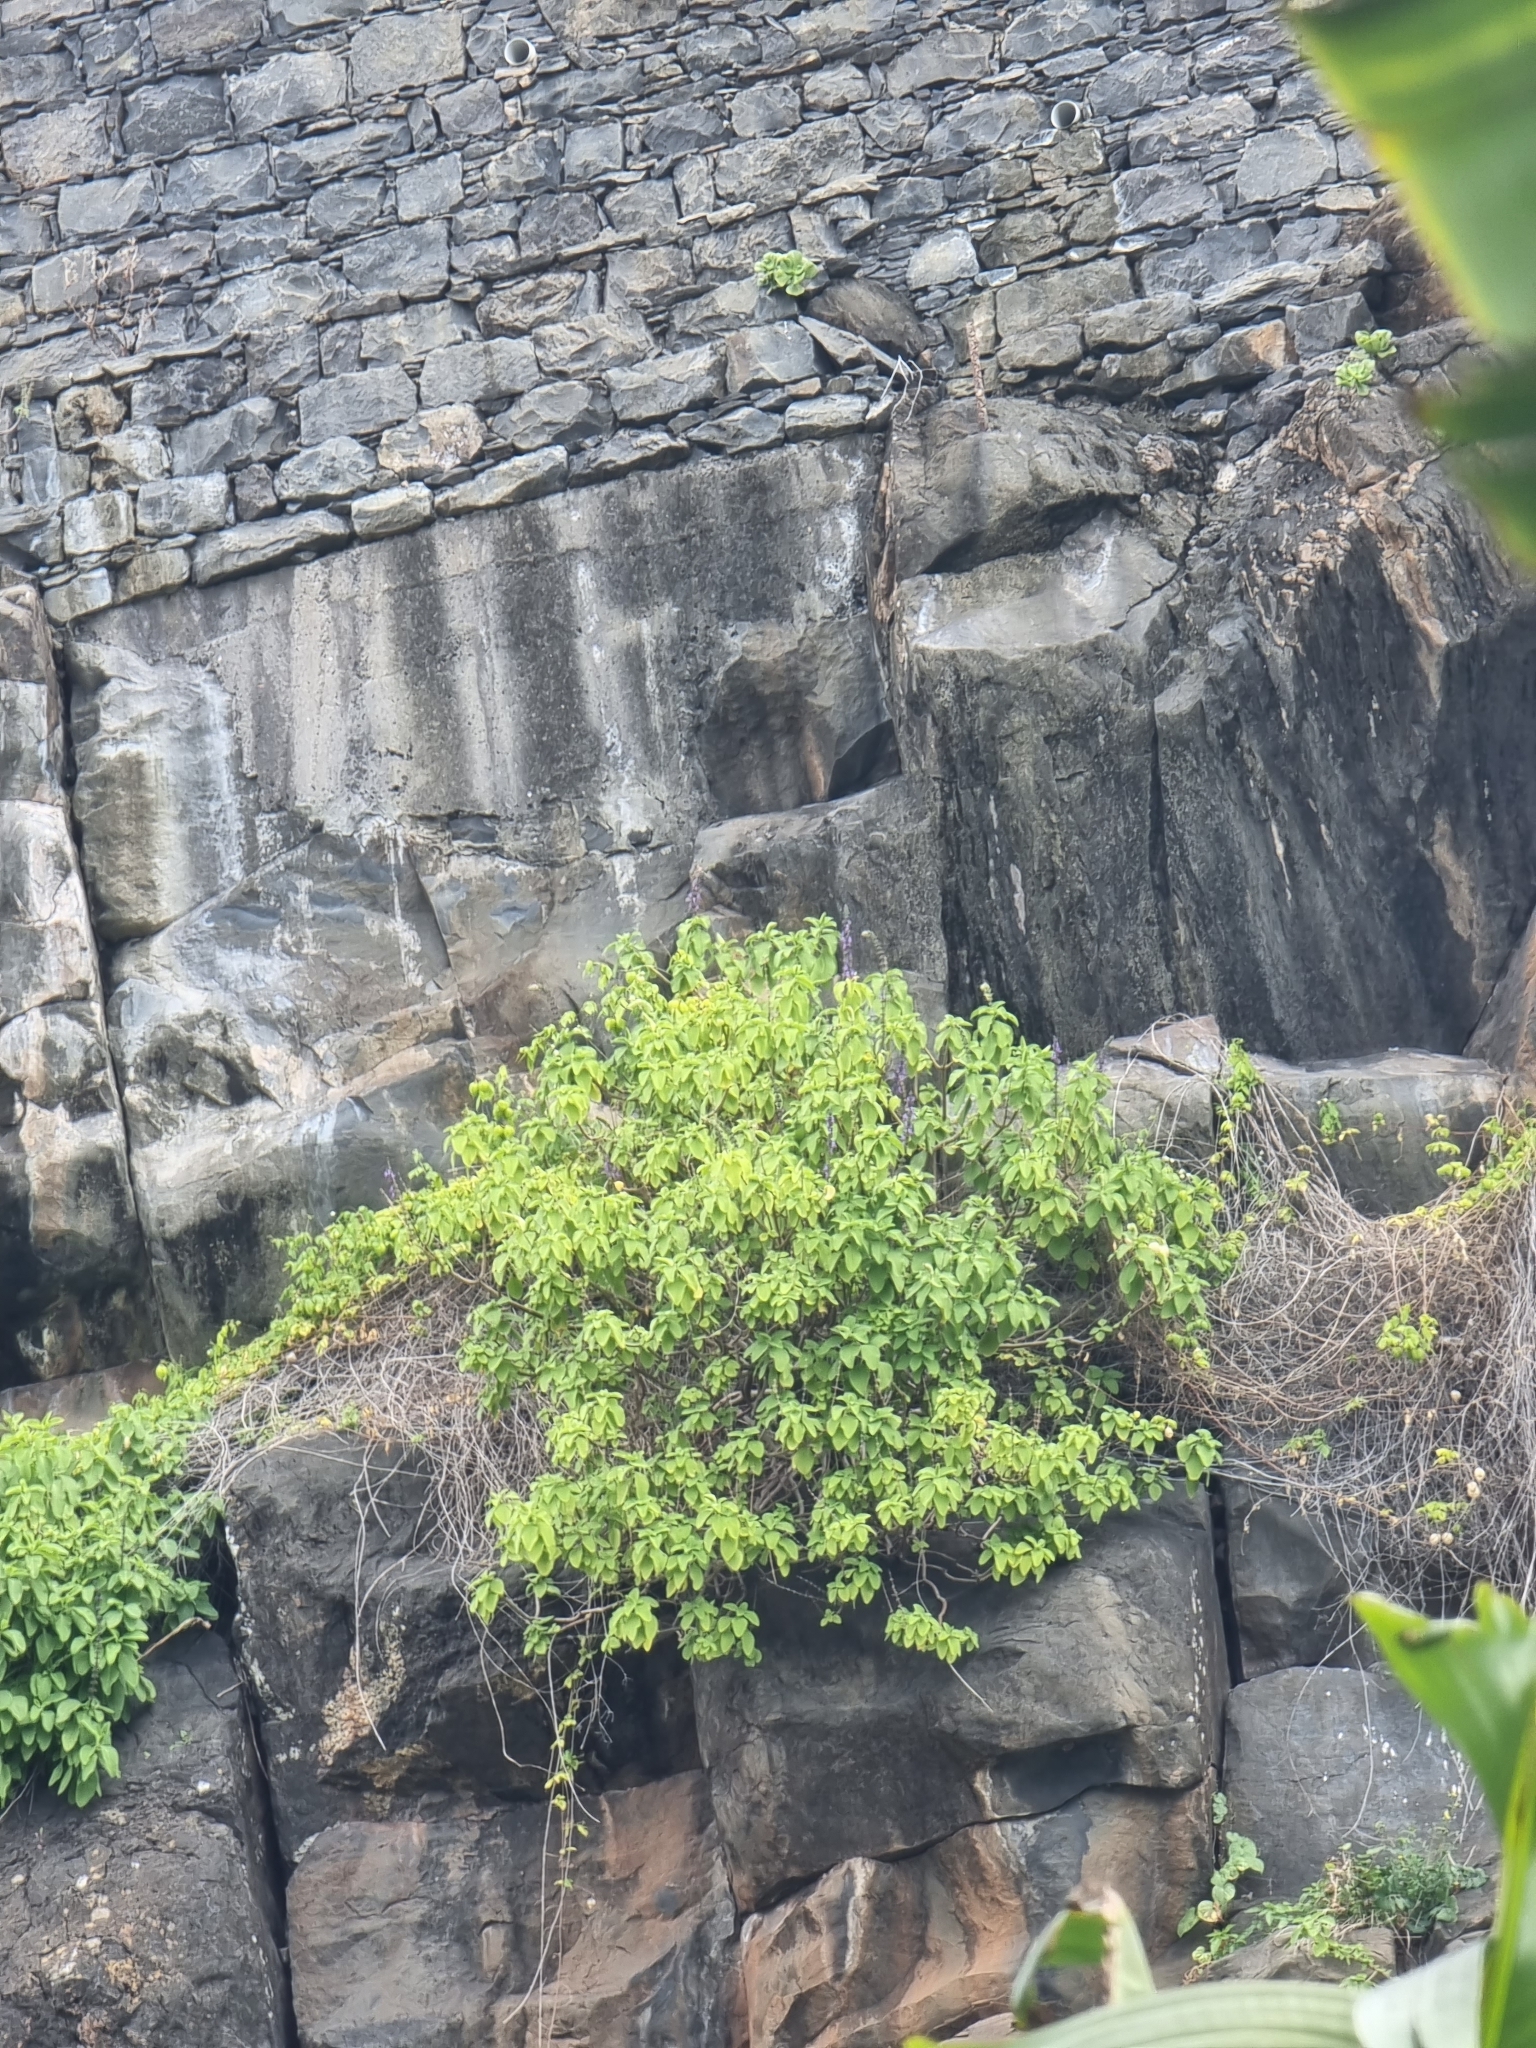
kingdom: Plantae
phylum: Tracheophyta
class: Magnoliopsida
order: Lamiales
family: Lamiaceae
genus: Coleus
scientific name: Coleus barbatus
